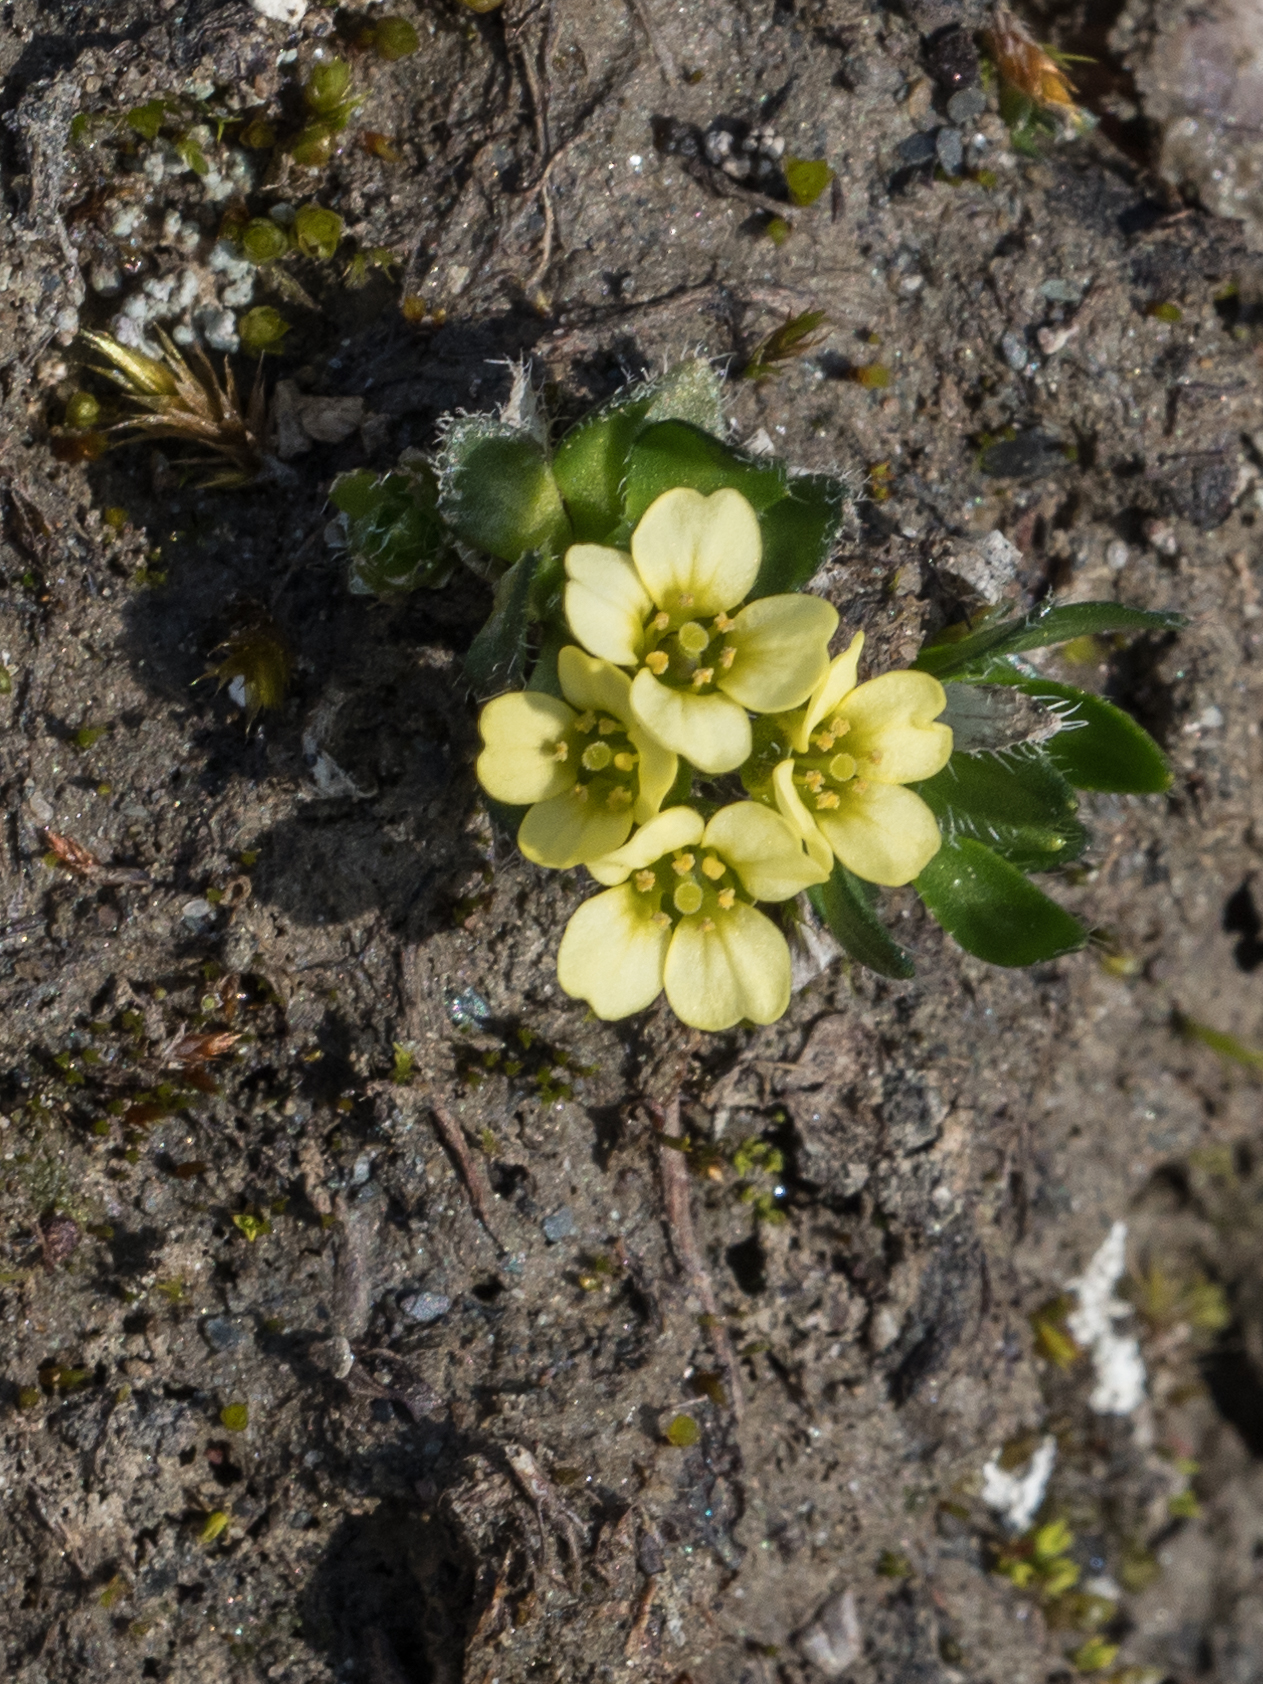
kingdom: Plantae
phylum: Tracheophyta
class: Magnoliopsida
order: Brassicales
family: Brassicaceae
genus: Draba
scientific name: Draba oxycarpa
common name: Sharp-fruited whitlow-grass
